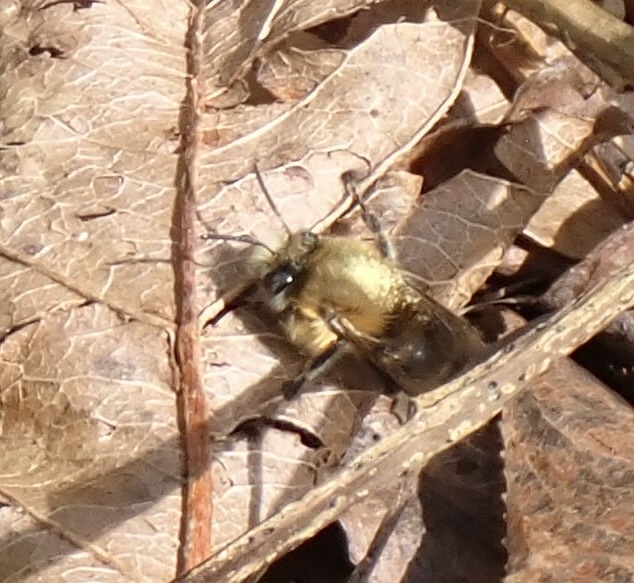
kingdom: Animalia
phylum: Arthropoda
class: Insecta
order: Hymenoptera
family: Apidae
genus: Anthophora
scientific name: Anthophora plumipes
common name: Hairy-footed flower bee
